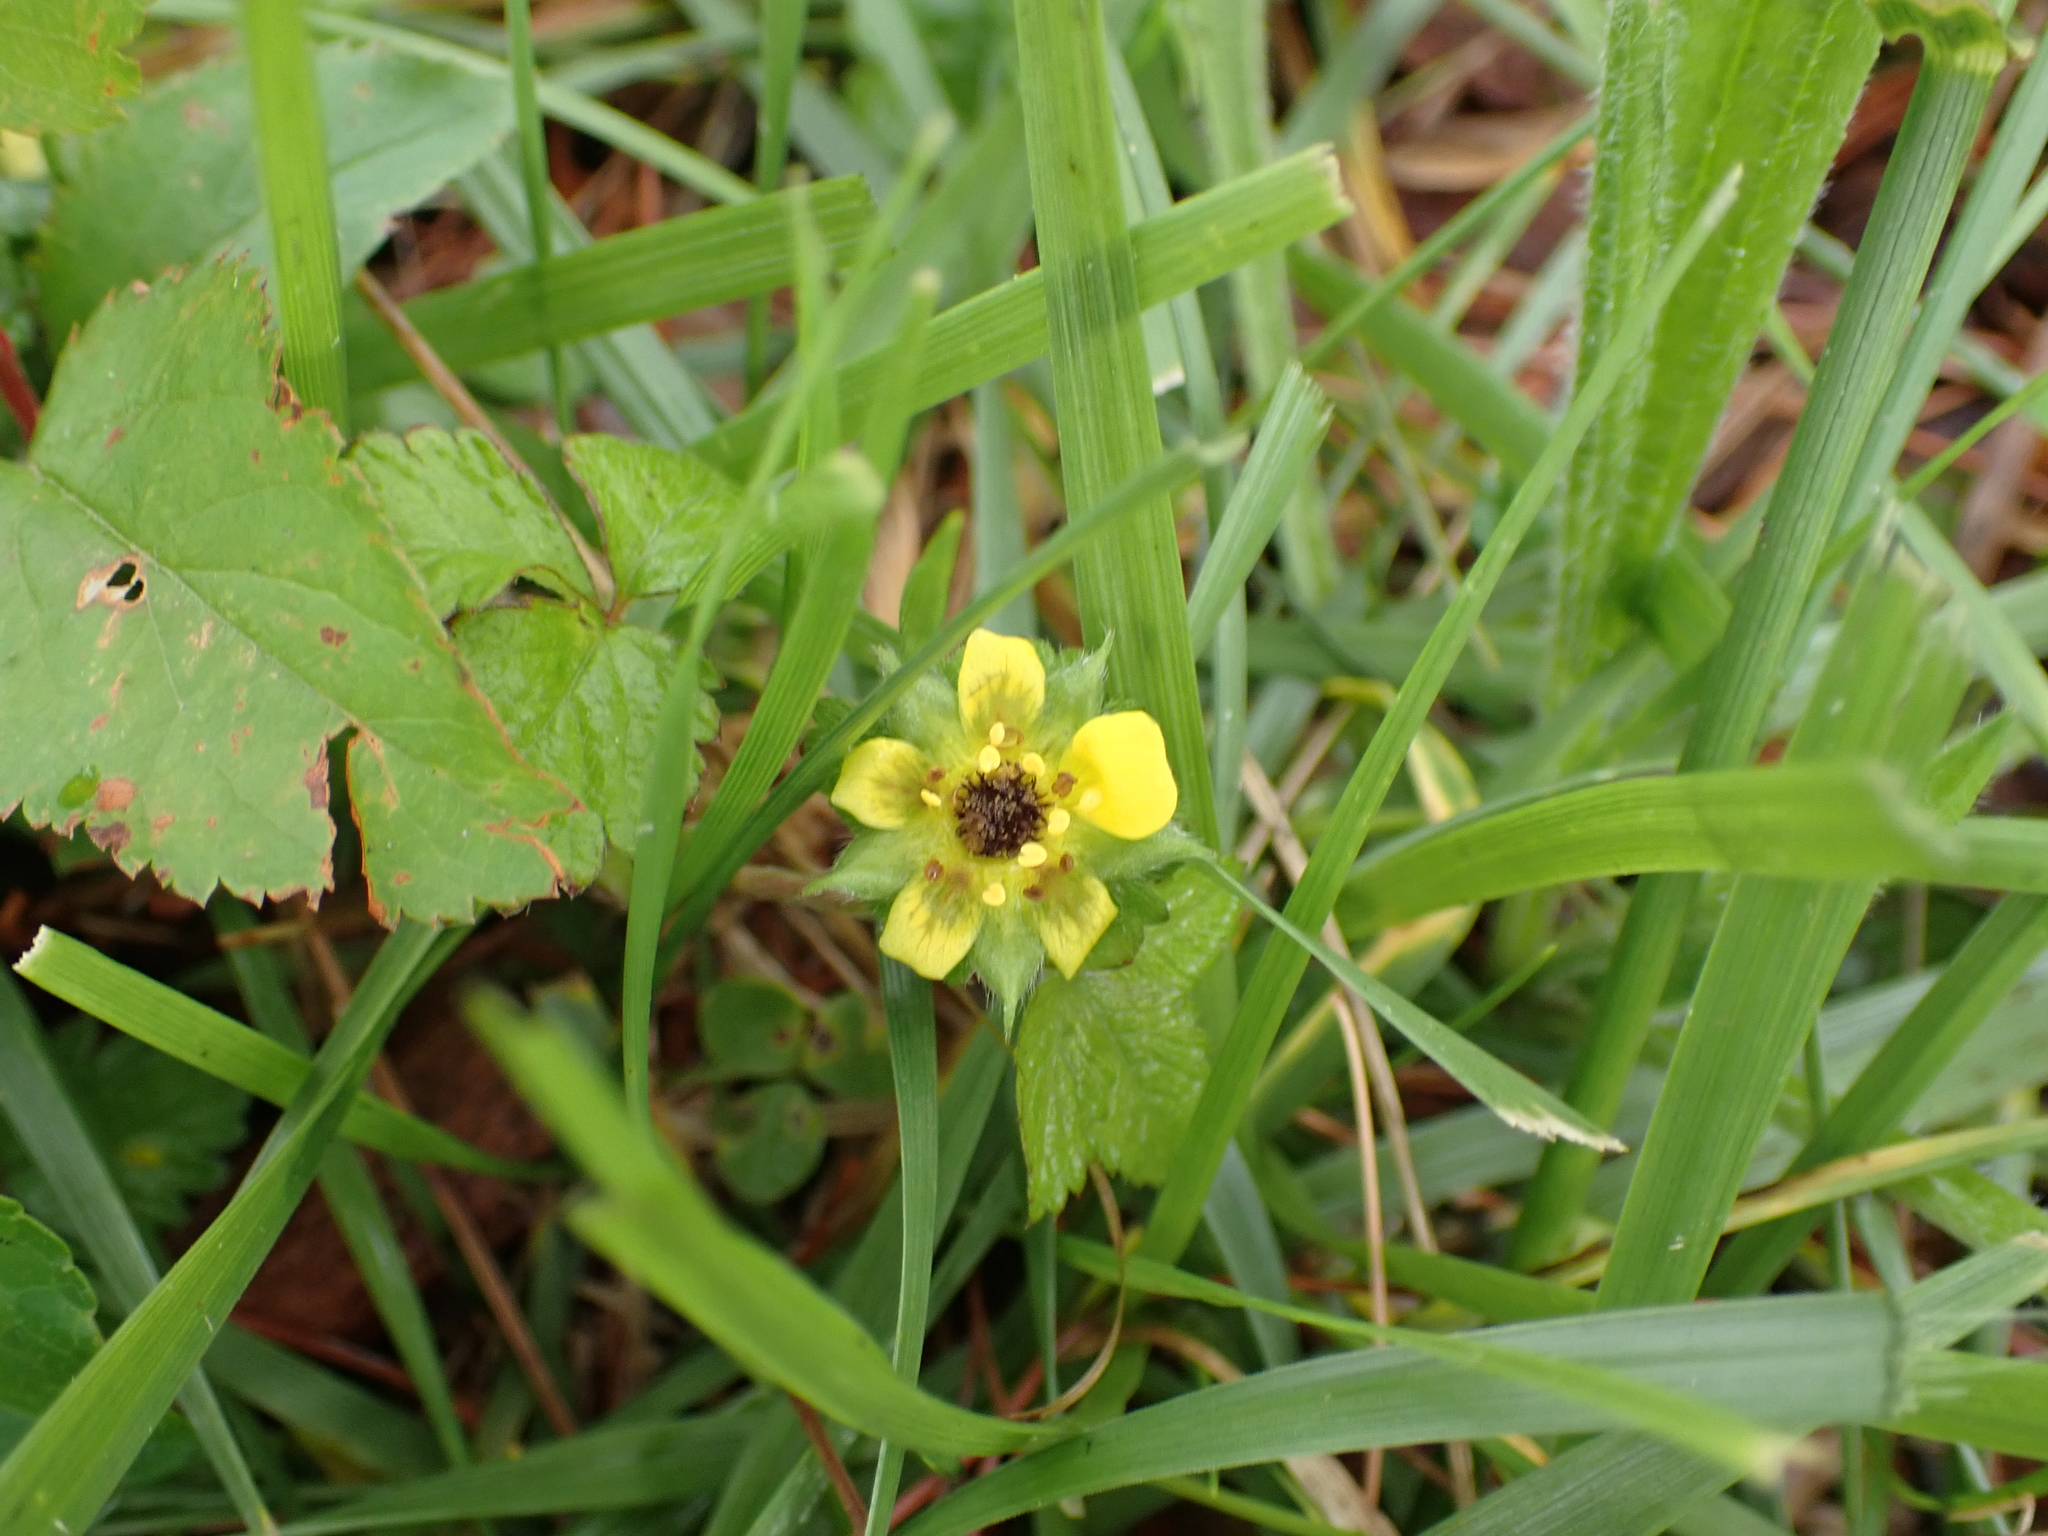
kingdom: Plantae
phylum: Tracheophyta
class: Magnoliopsida
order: Rosales
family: Rosaceae
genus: Potentilla
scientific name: Potentilla indica
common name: Yellow-flowered strawberry
